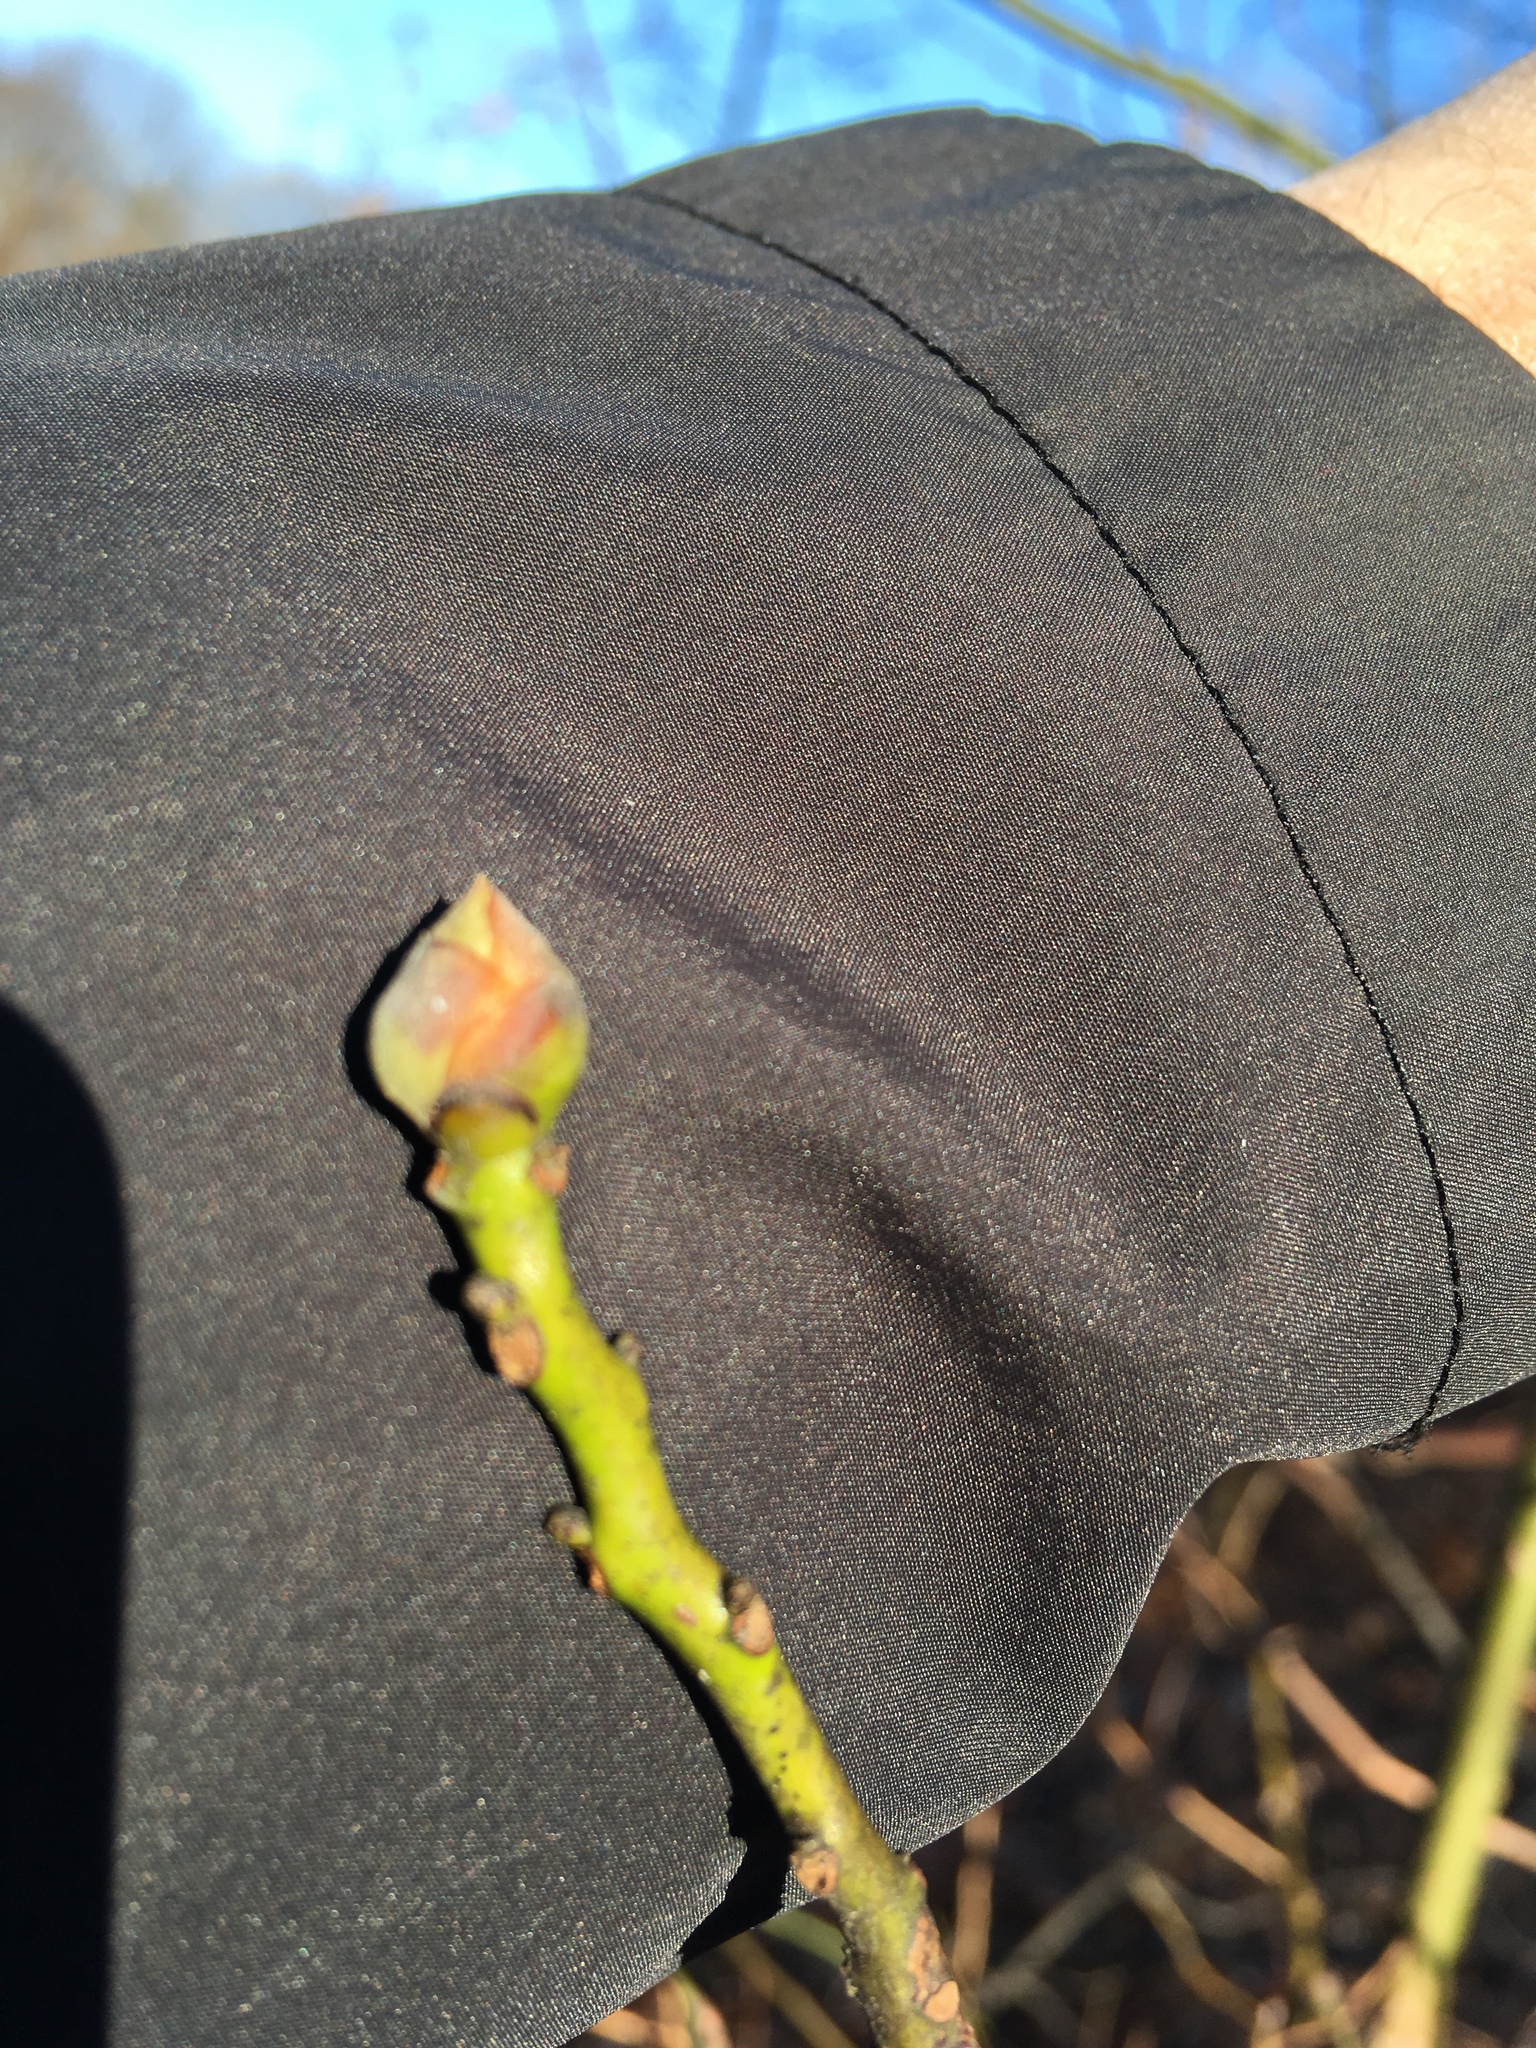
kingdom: Plantae
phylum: Tracheophyta
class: Magnoliopsida
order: Laurales
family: Lauraceae
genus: Sassafras
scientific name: Sassafras albidum
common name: Sassafras
